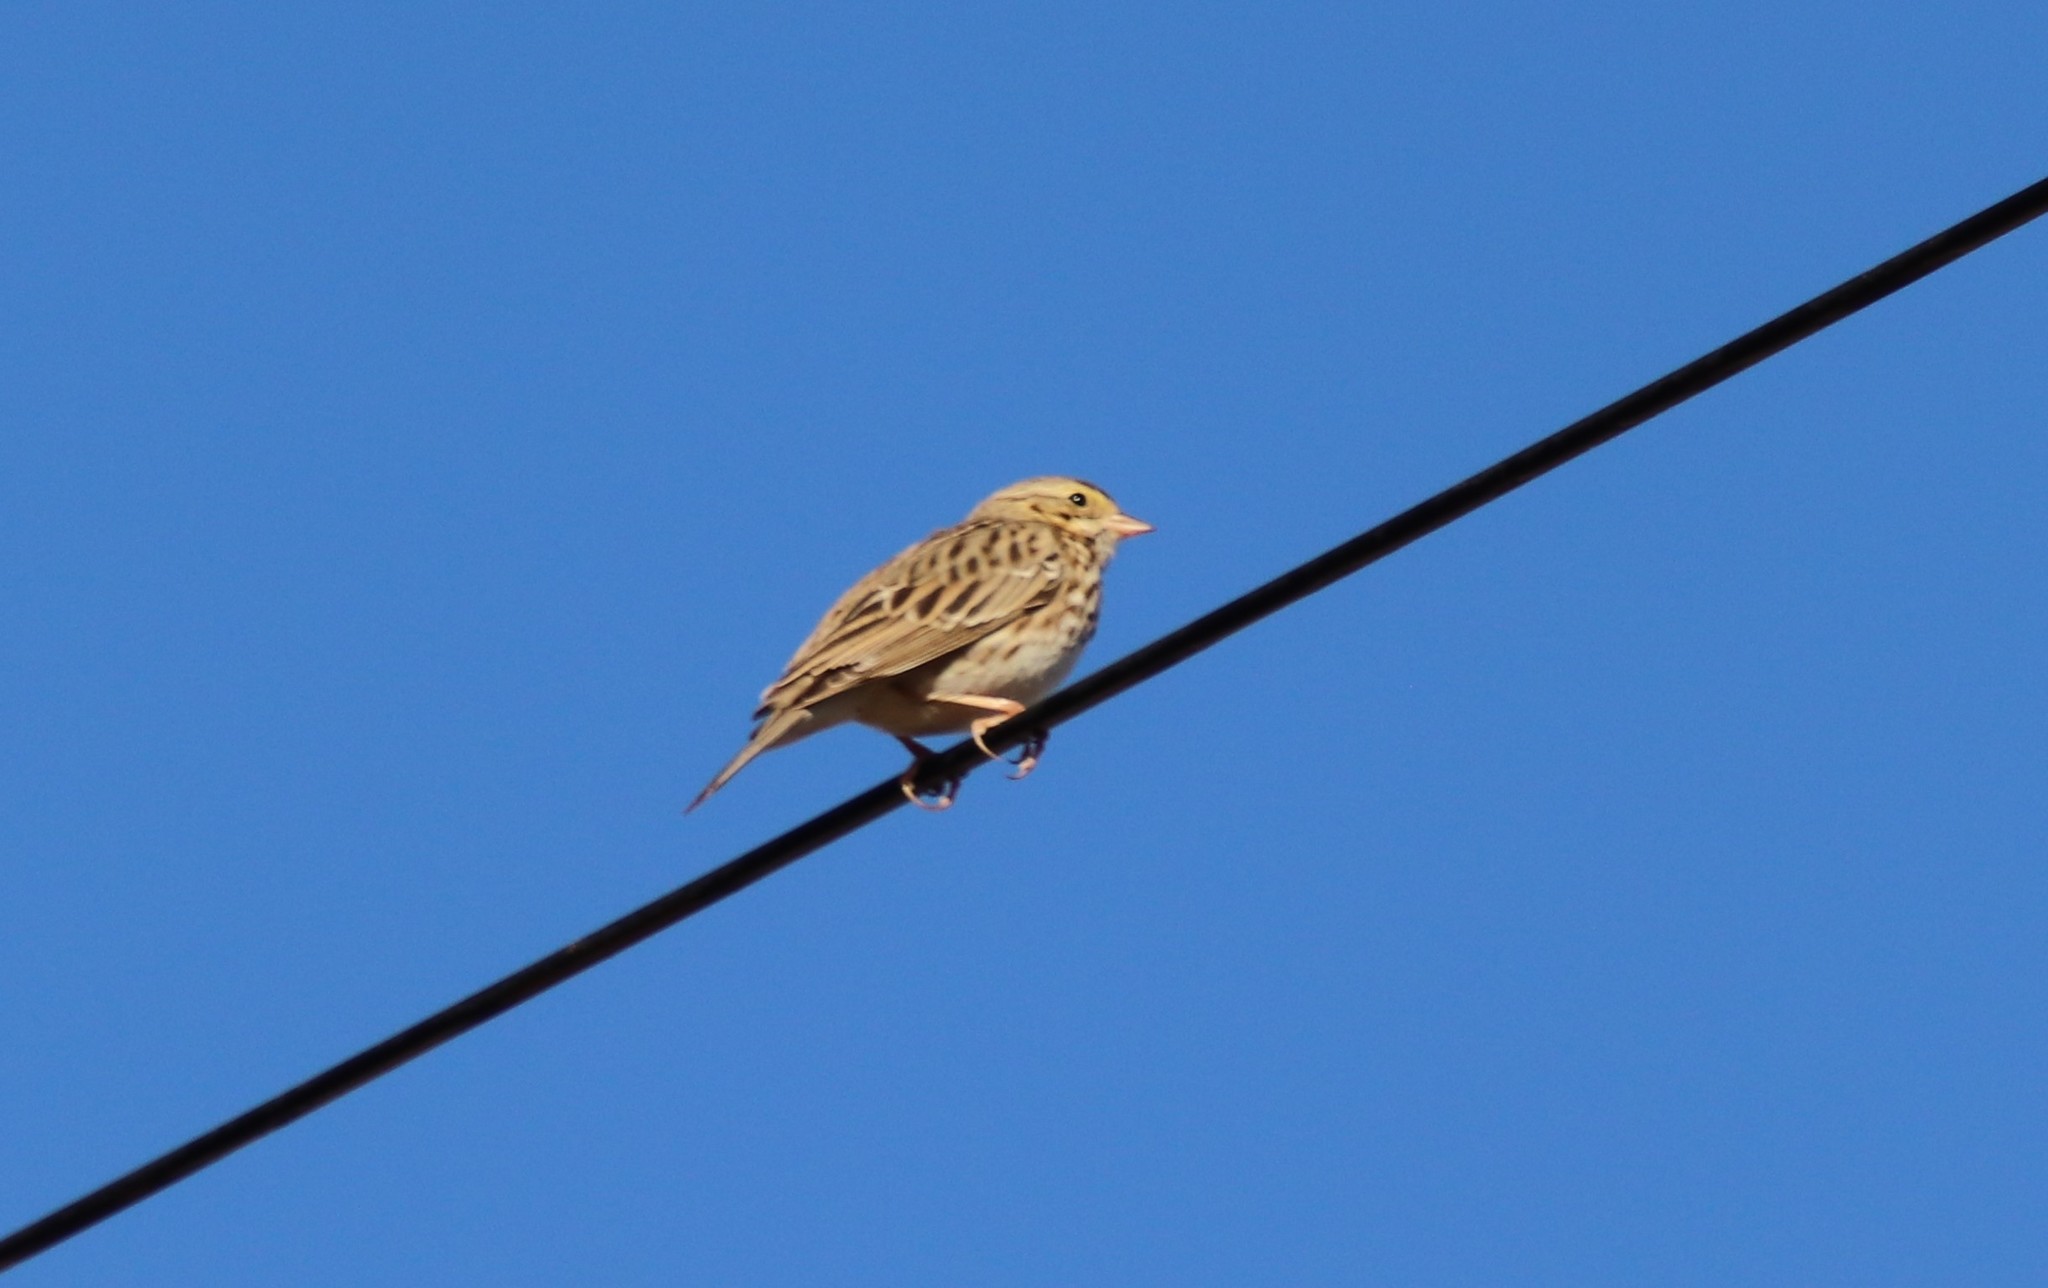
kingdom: Animalia
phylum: Chordata
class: Aves
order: Passeriformes
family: Passerellidae
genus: Passerculus
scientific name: Passerculus sandwichensis
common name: Savannah sparrow
